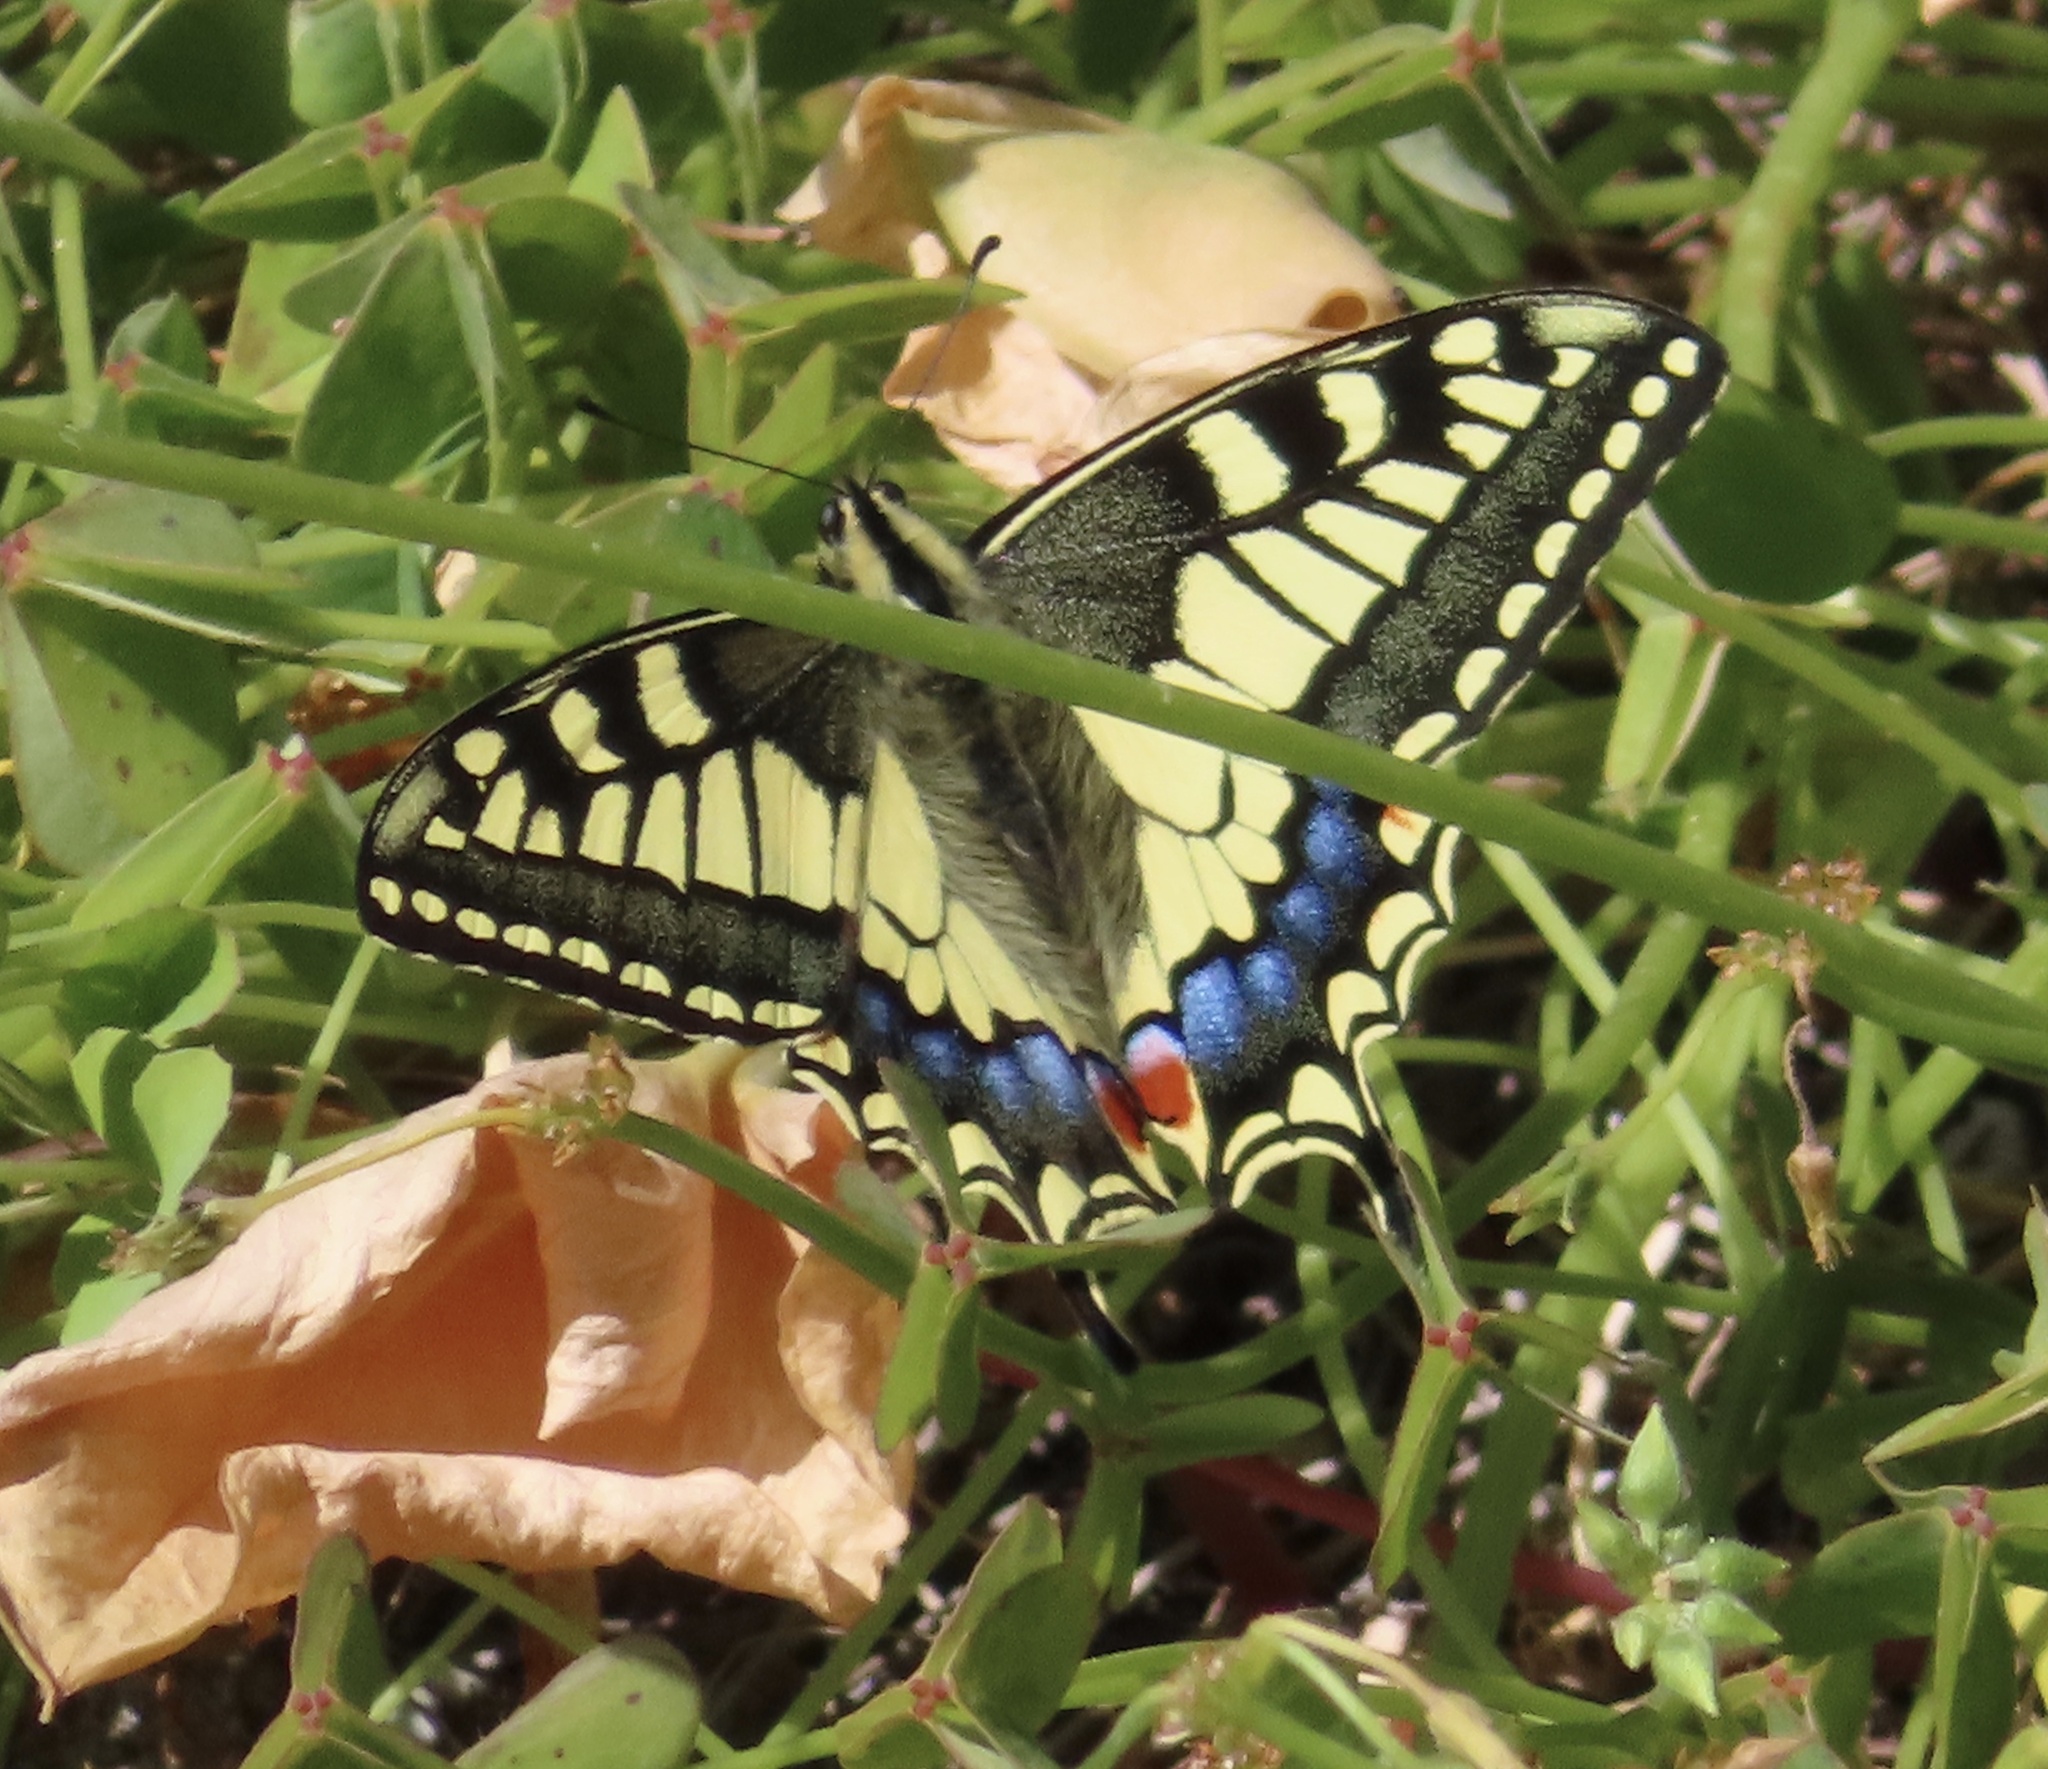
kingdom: Animalia
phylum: Arthropoda
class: Insecta
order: Lepidoptera
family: Papilionidae
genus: Papilio
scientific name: Papilio machaon
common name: Swallowtail
